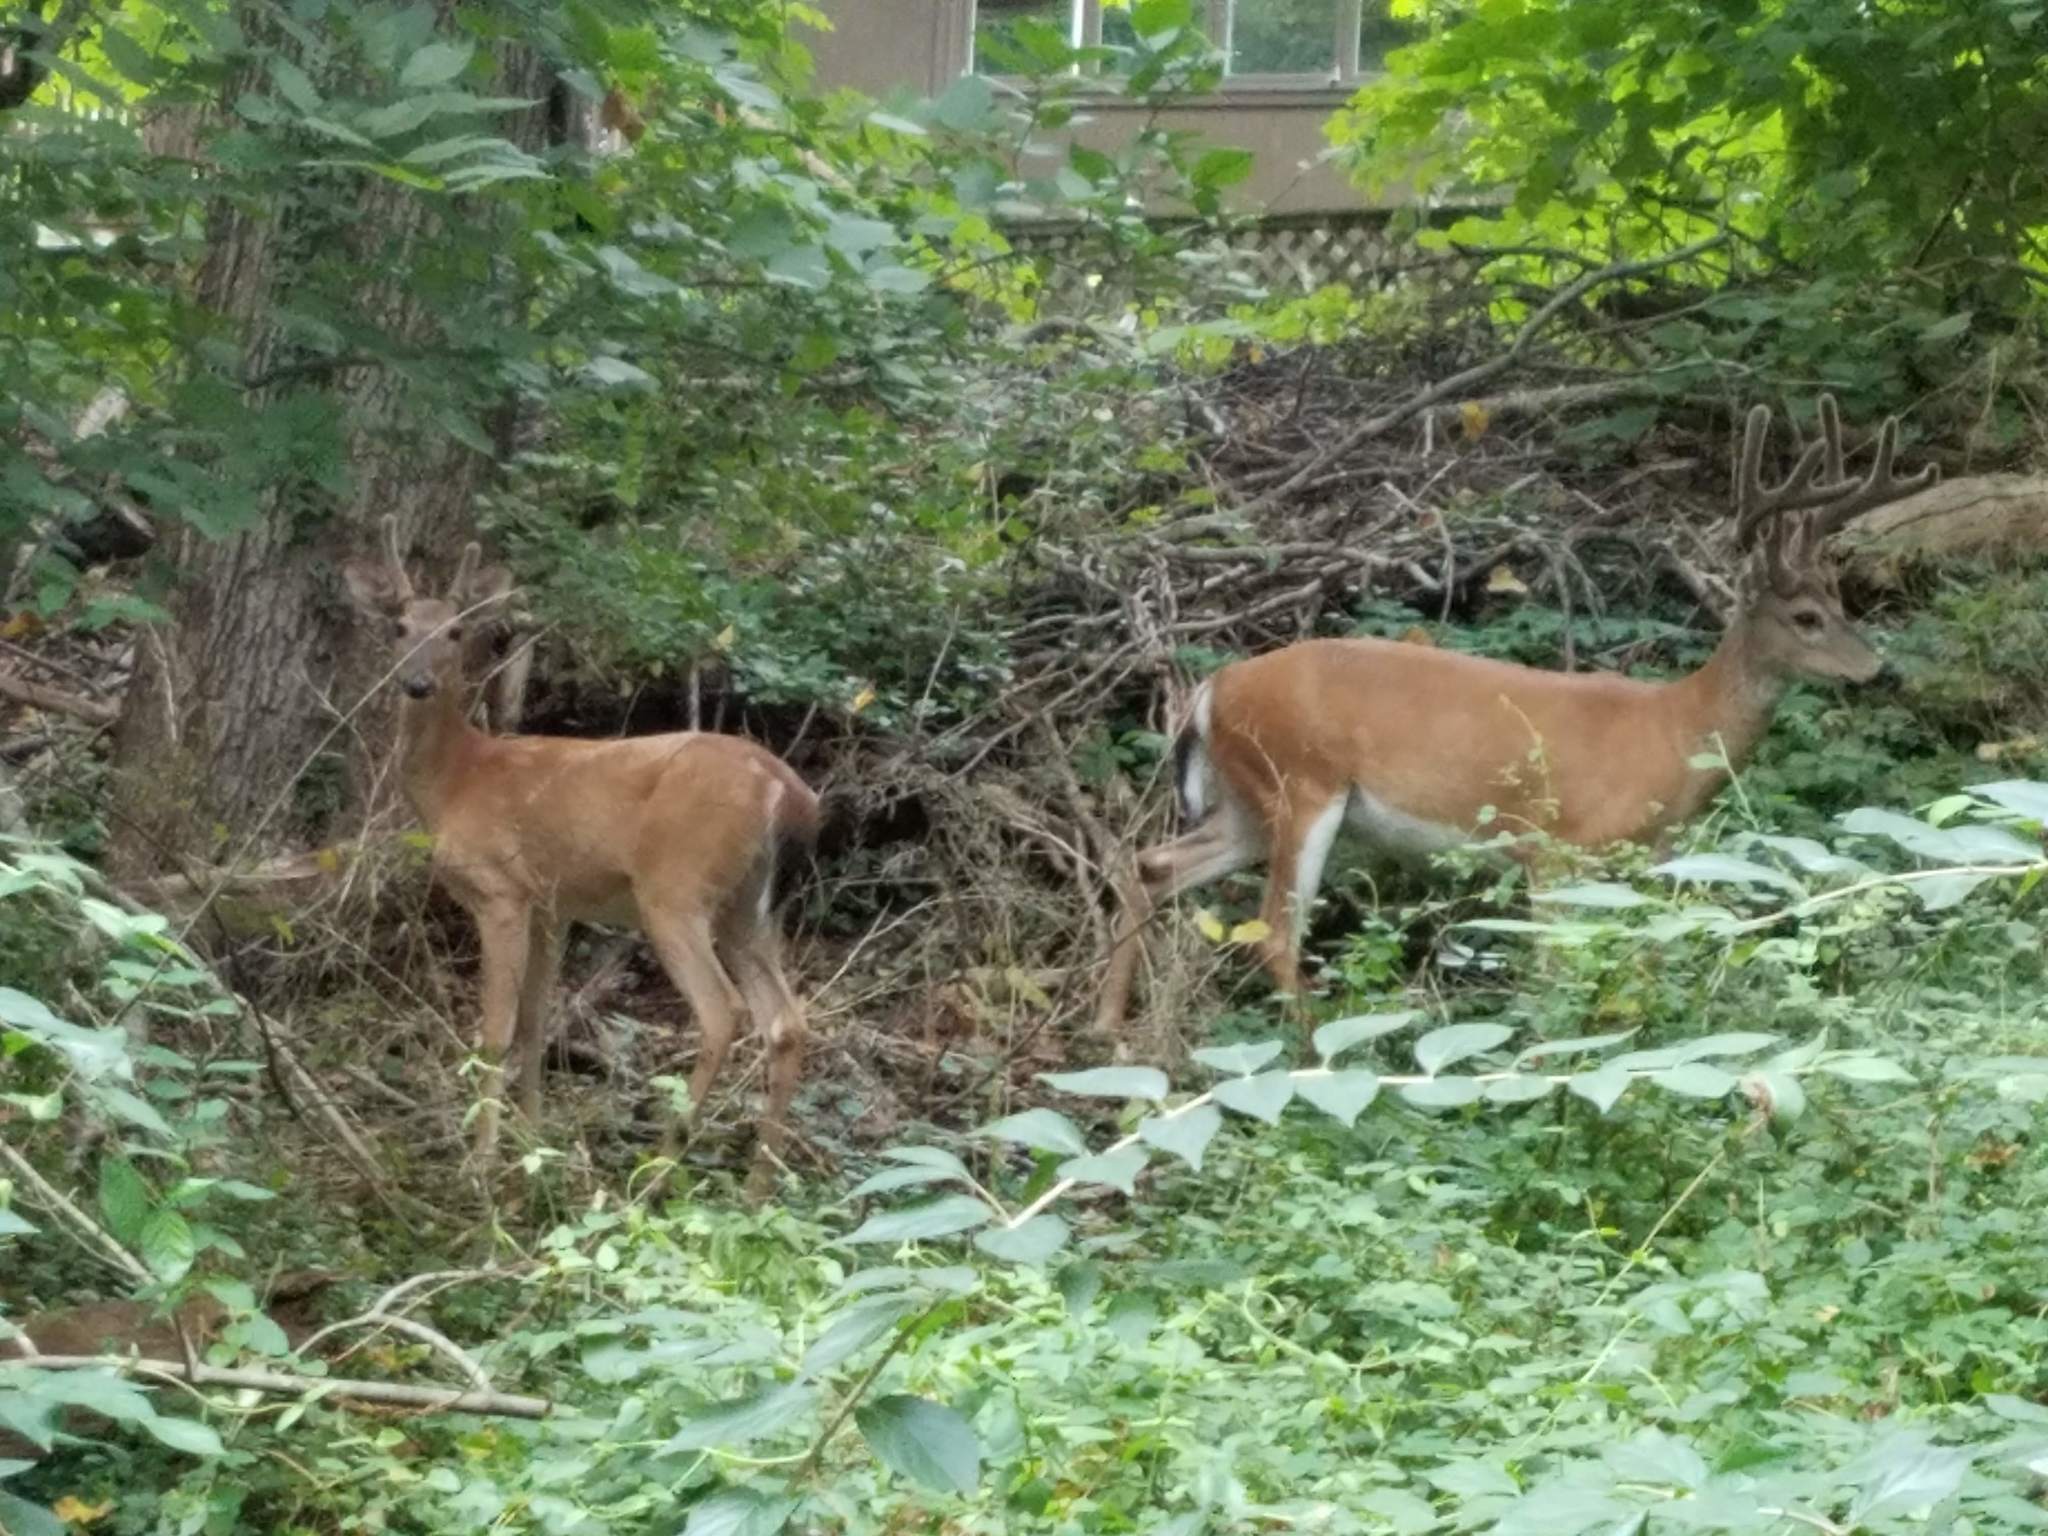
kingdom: Animalia
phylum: Chordata
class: Mammalia
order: Artiodactyla
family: Cervidae
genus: Odocoileus
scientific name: Odocoileus virginianus
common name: White-tailed deer
